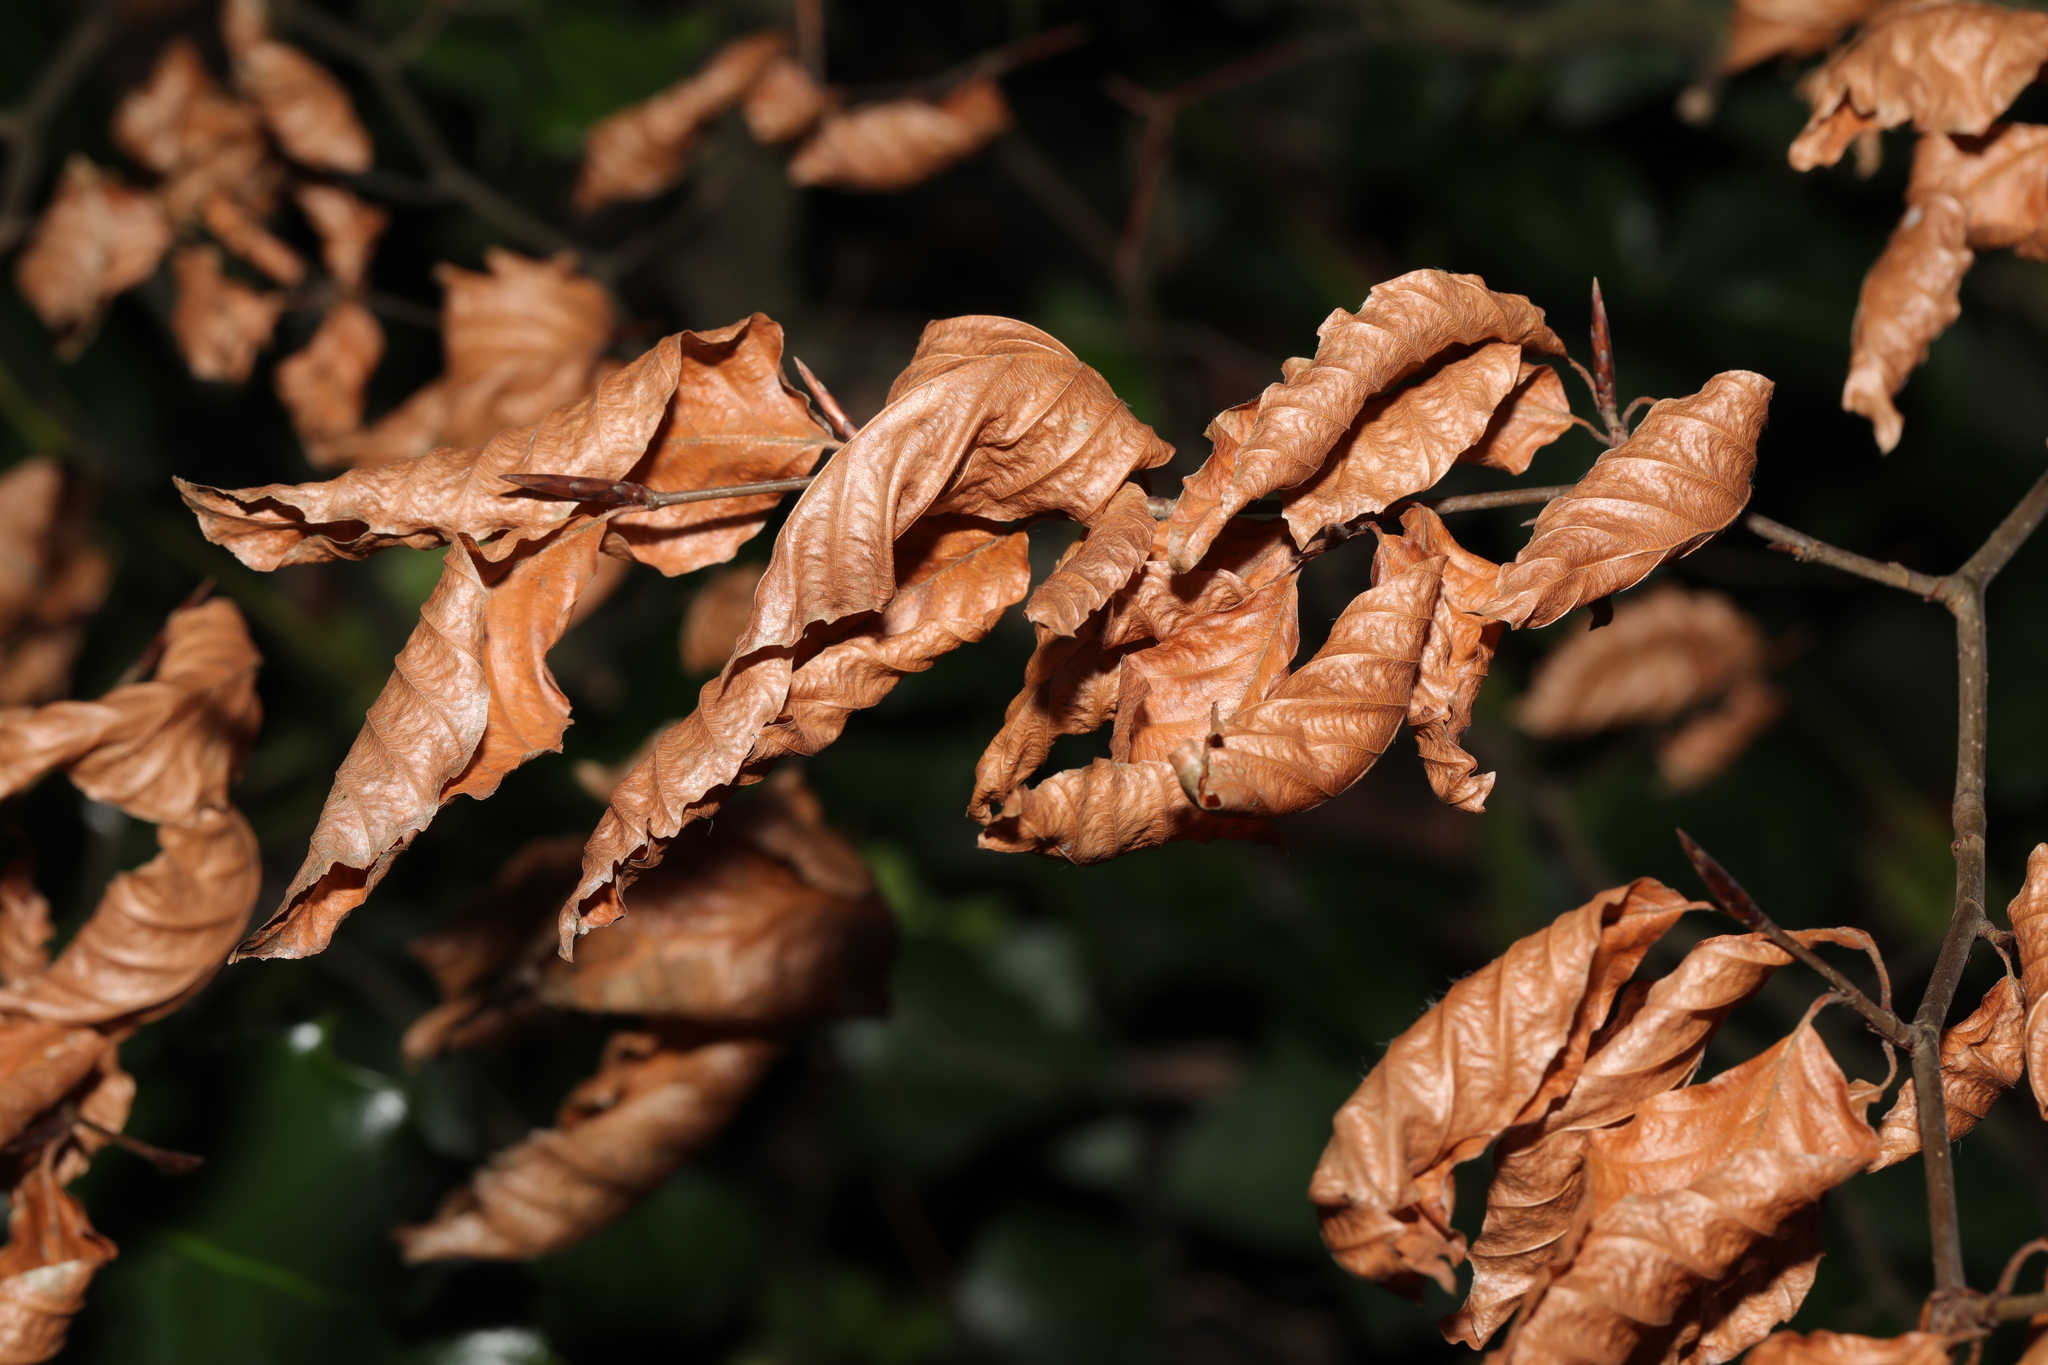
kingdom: Plantae
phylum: Tracheophyta
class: Magnoliopsida
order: Fagales
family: Fagaceae
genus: Fagus
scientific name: Fagus sylvatica
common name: Beech
